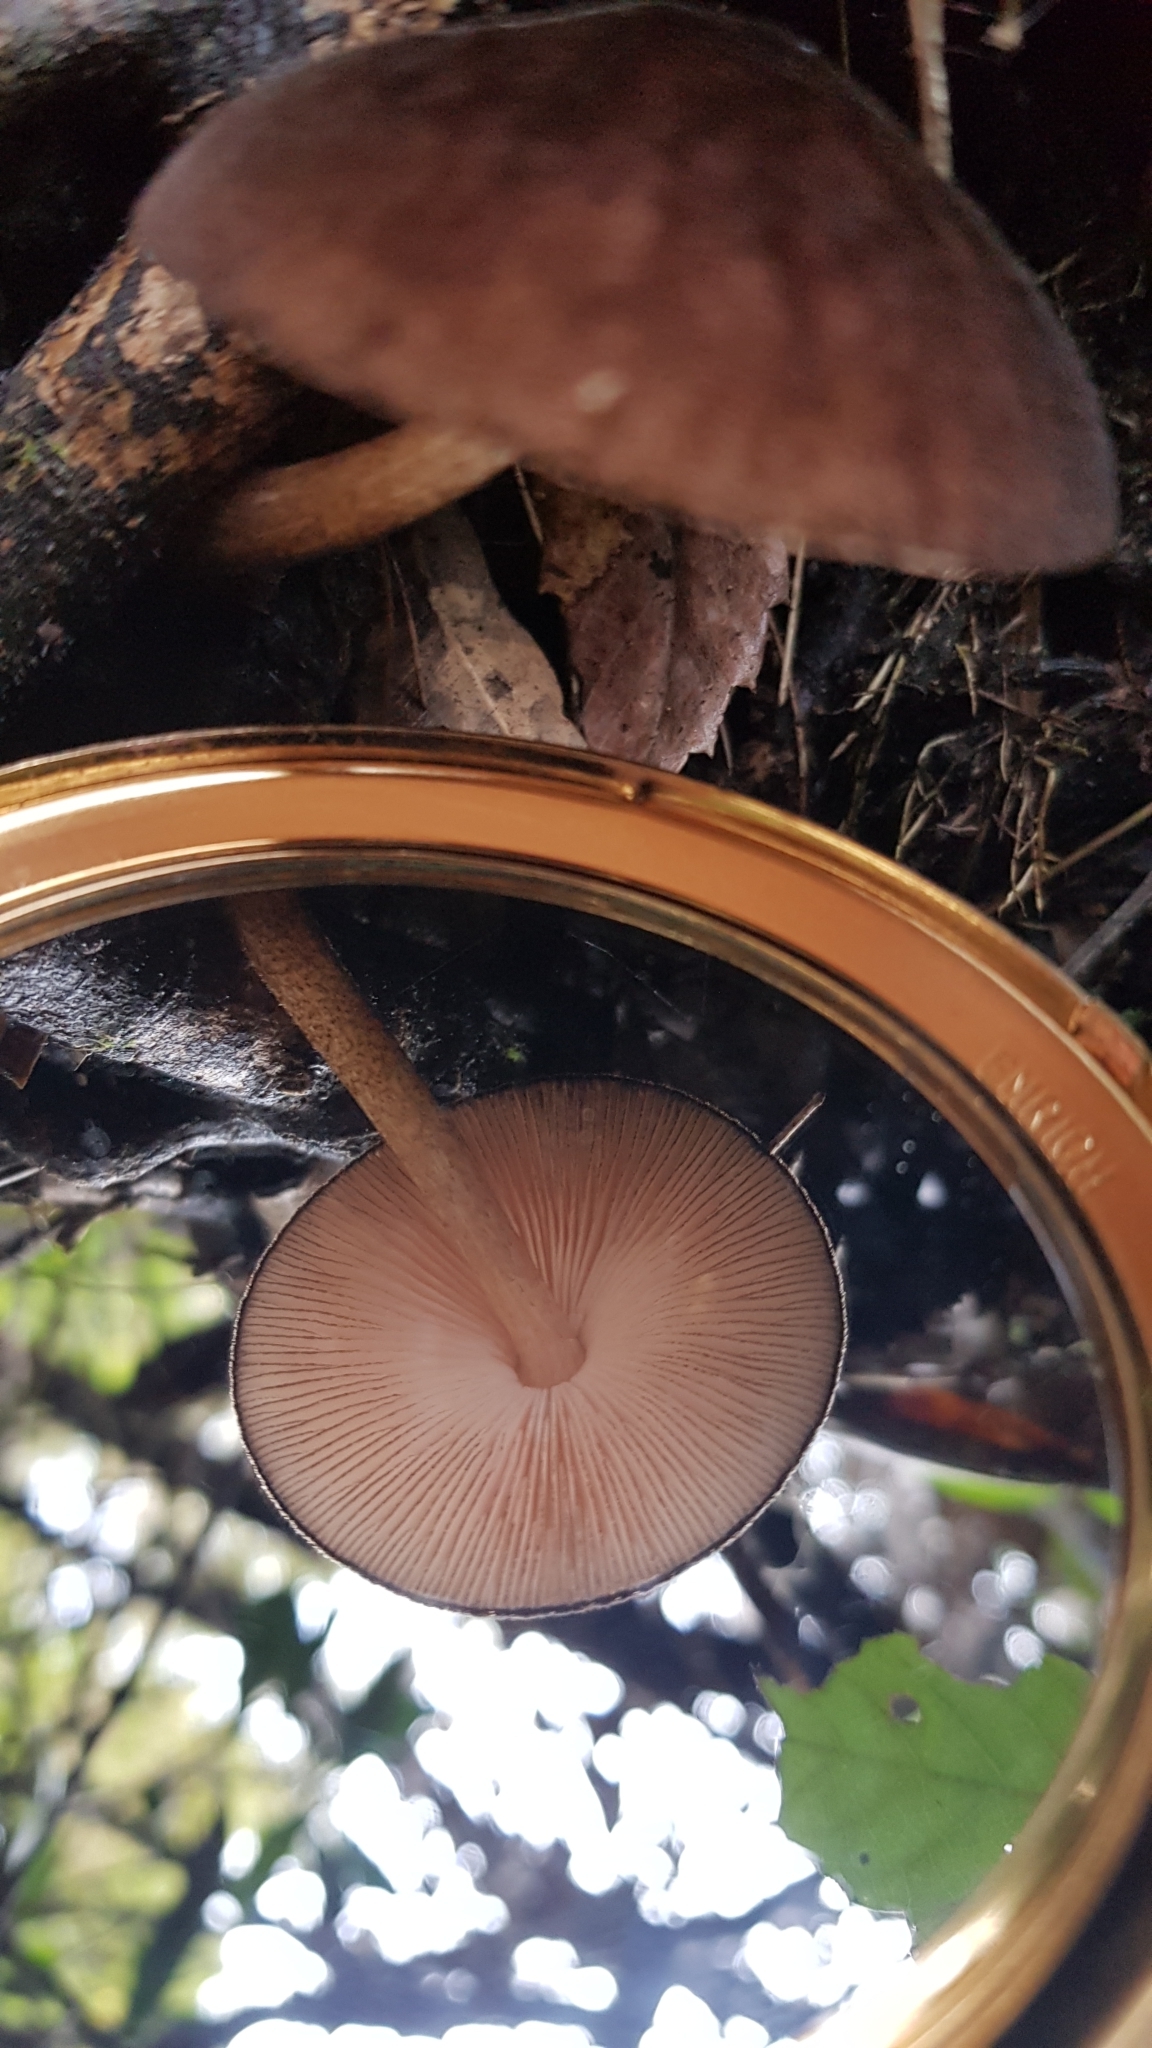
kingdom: Fungi
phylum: Basidiomycota
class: Agaricomycetes
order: Agaricales
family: Pluteaceae
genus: Pluteus
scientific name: Pluteus atromarginatus
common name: Blackedged shield
